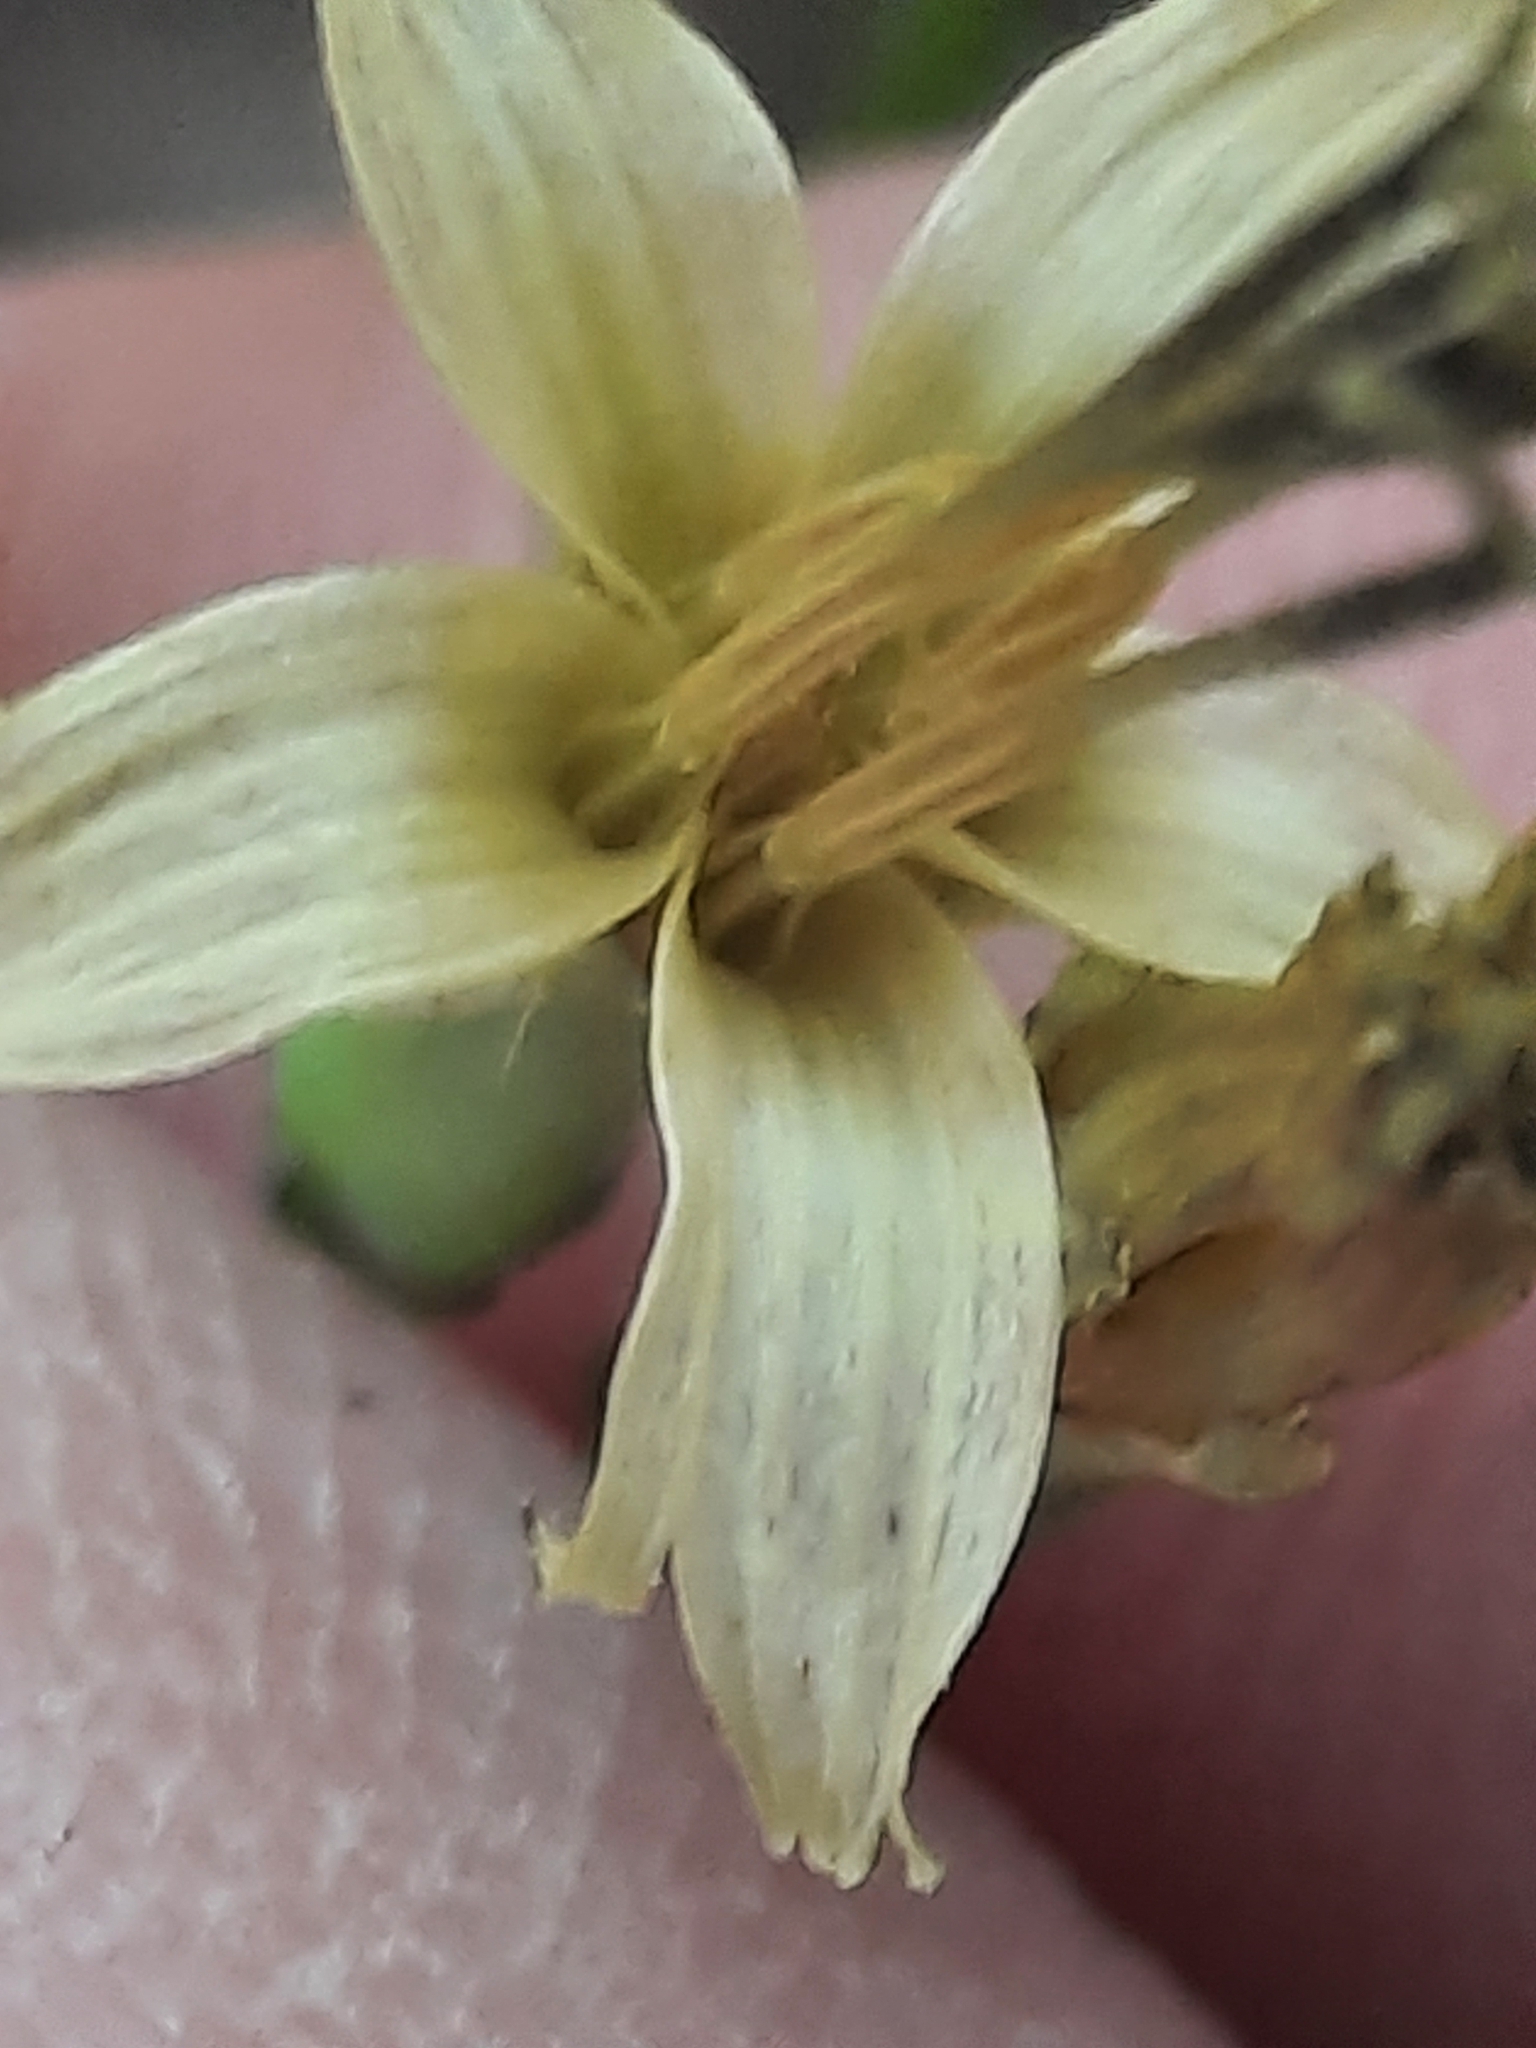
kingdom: Plantae
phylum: Tracheophyta
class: Magnoliopsida
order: Asterales
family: Asteraceae
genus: Nabalus
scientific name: Nabalus altissima
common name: Tall rattlesnakeroot
